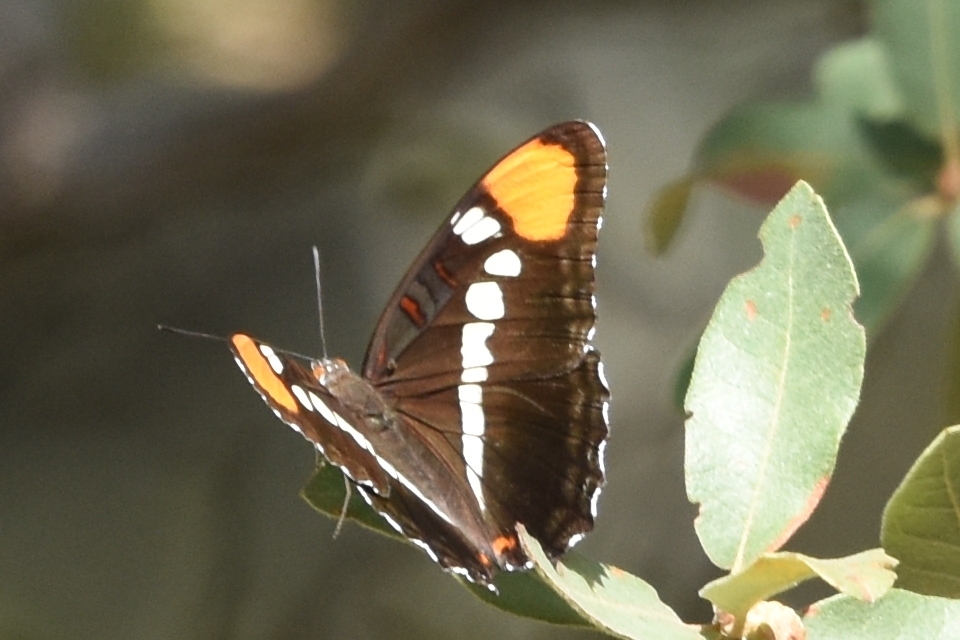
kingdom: Animalia
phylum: Arthropoda
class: Insecta
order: Lepidoptera
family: Nymphalidae
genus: Limenitis
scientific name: Limenitis bredowii
